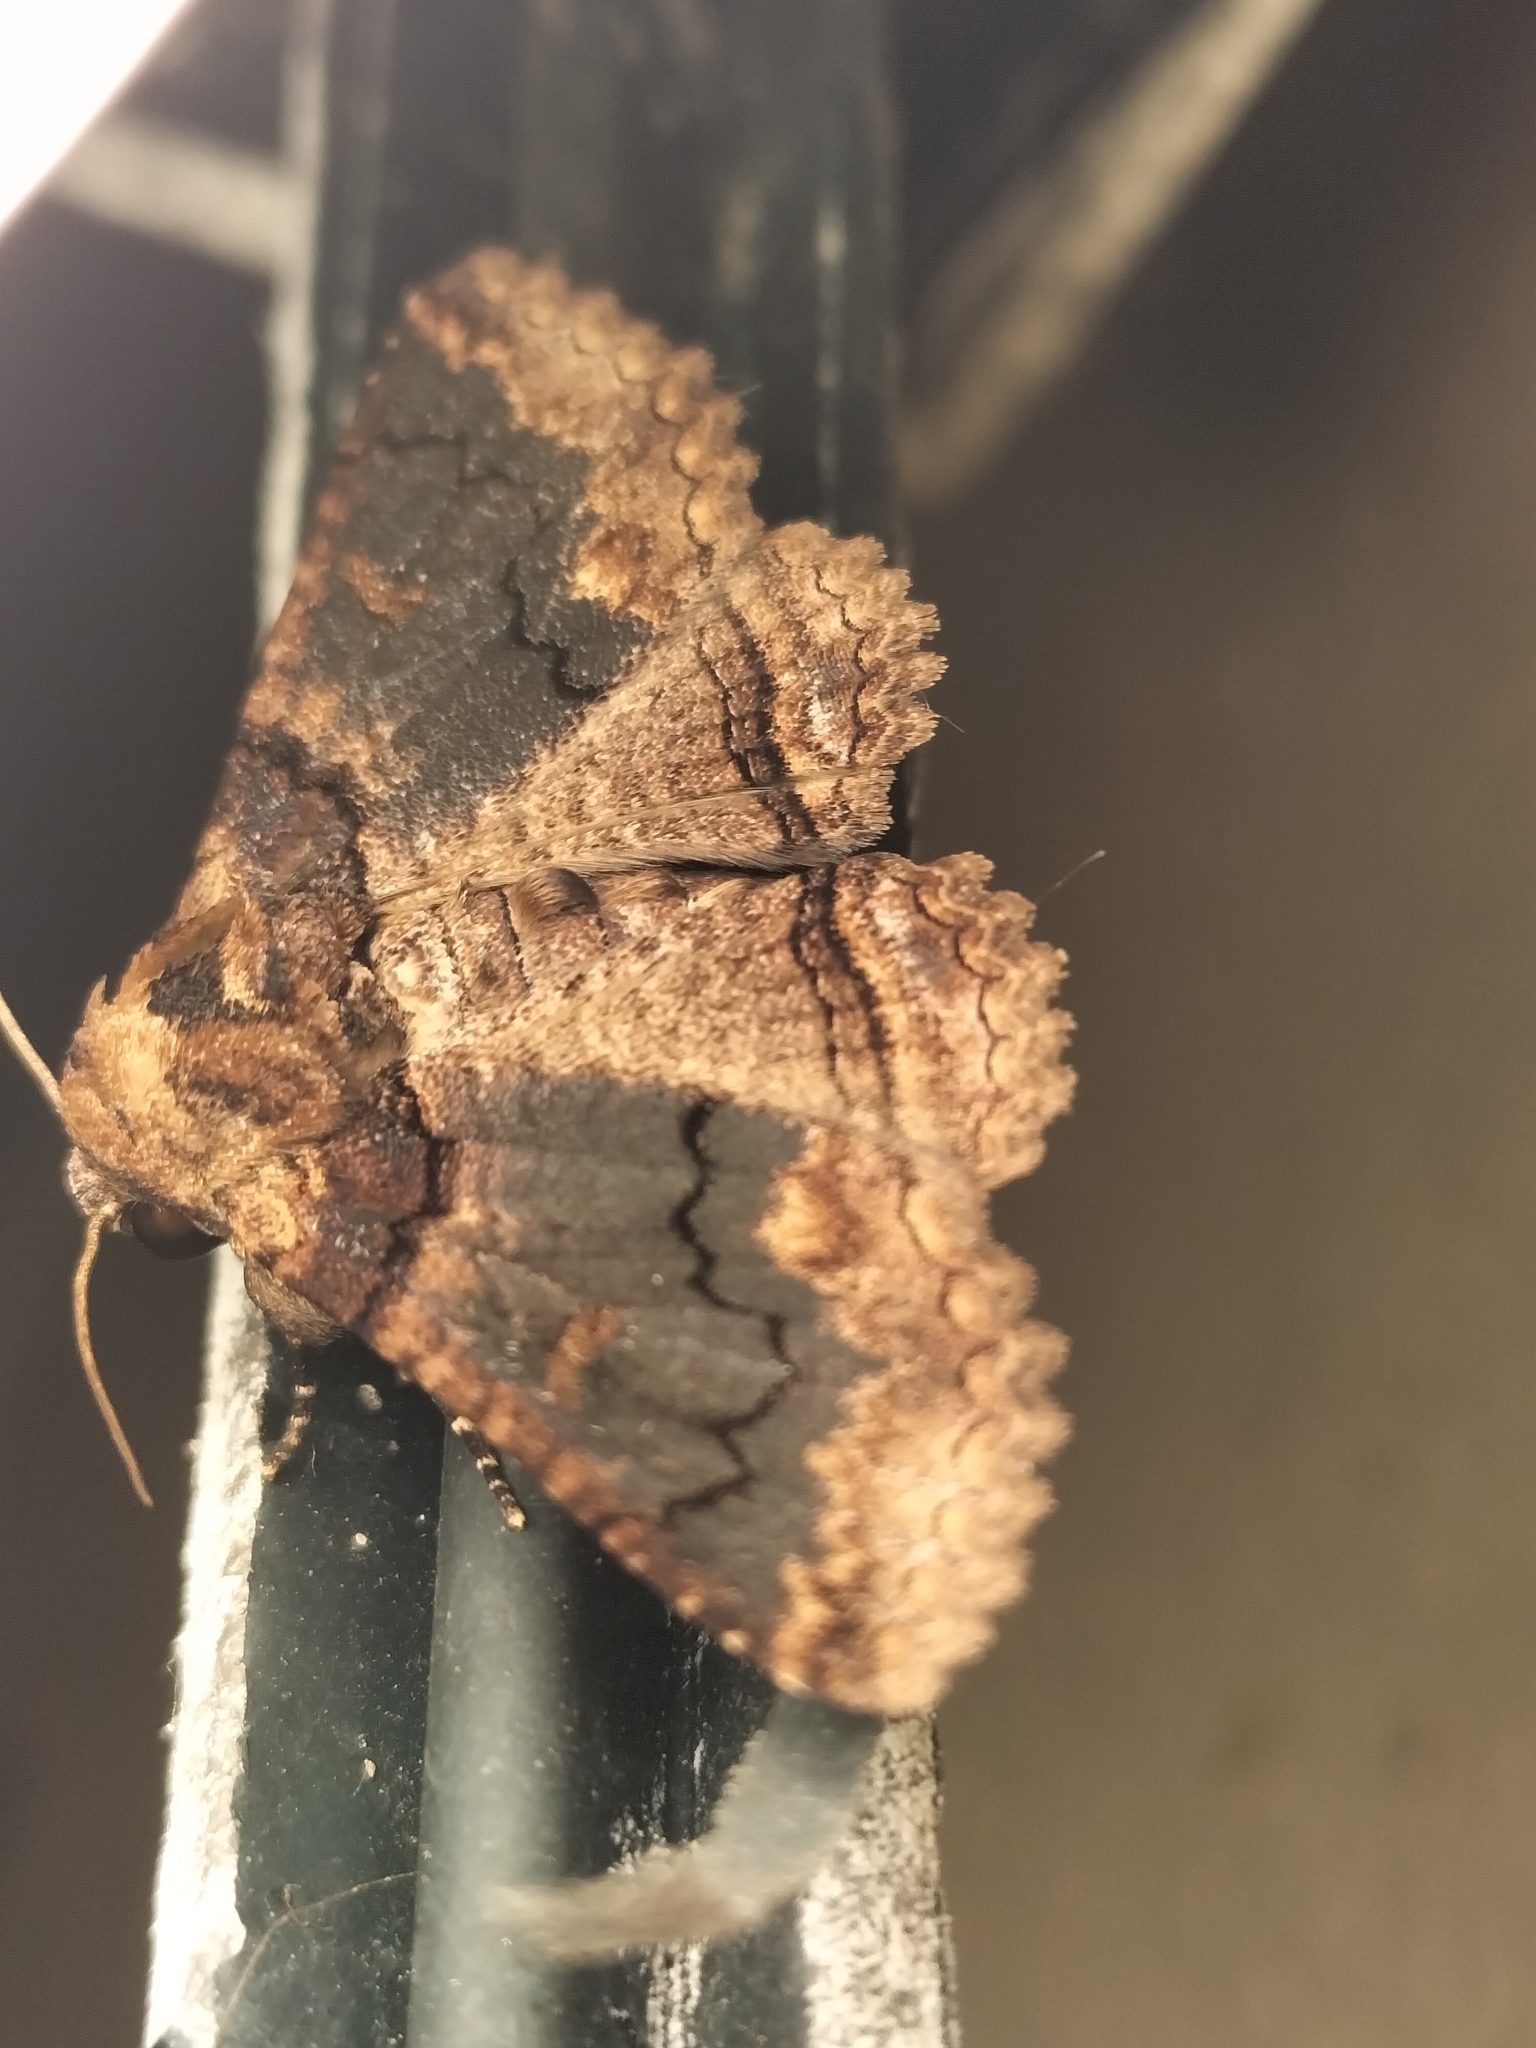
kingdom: Animalia
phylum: Arthropoda
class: Insecta
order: Lepidoptera
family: Erebidae
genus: Pericyma
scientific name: Pericyma cruegeri
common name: Poinciana looper
